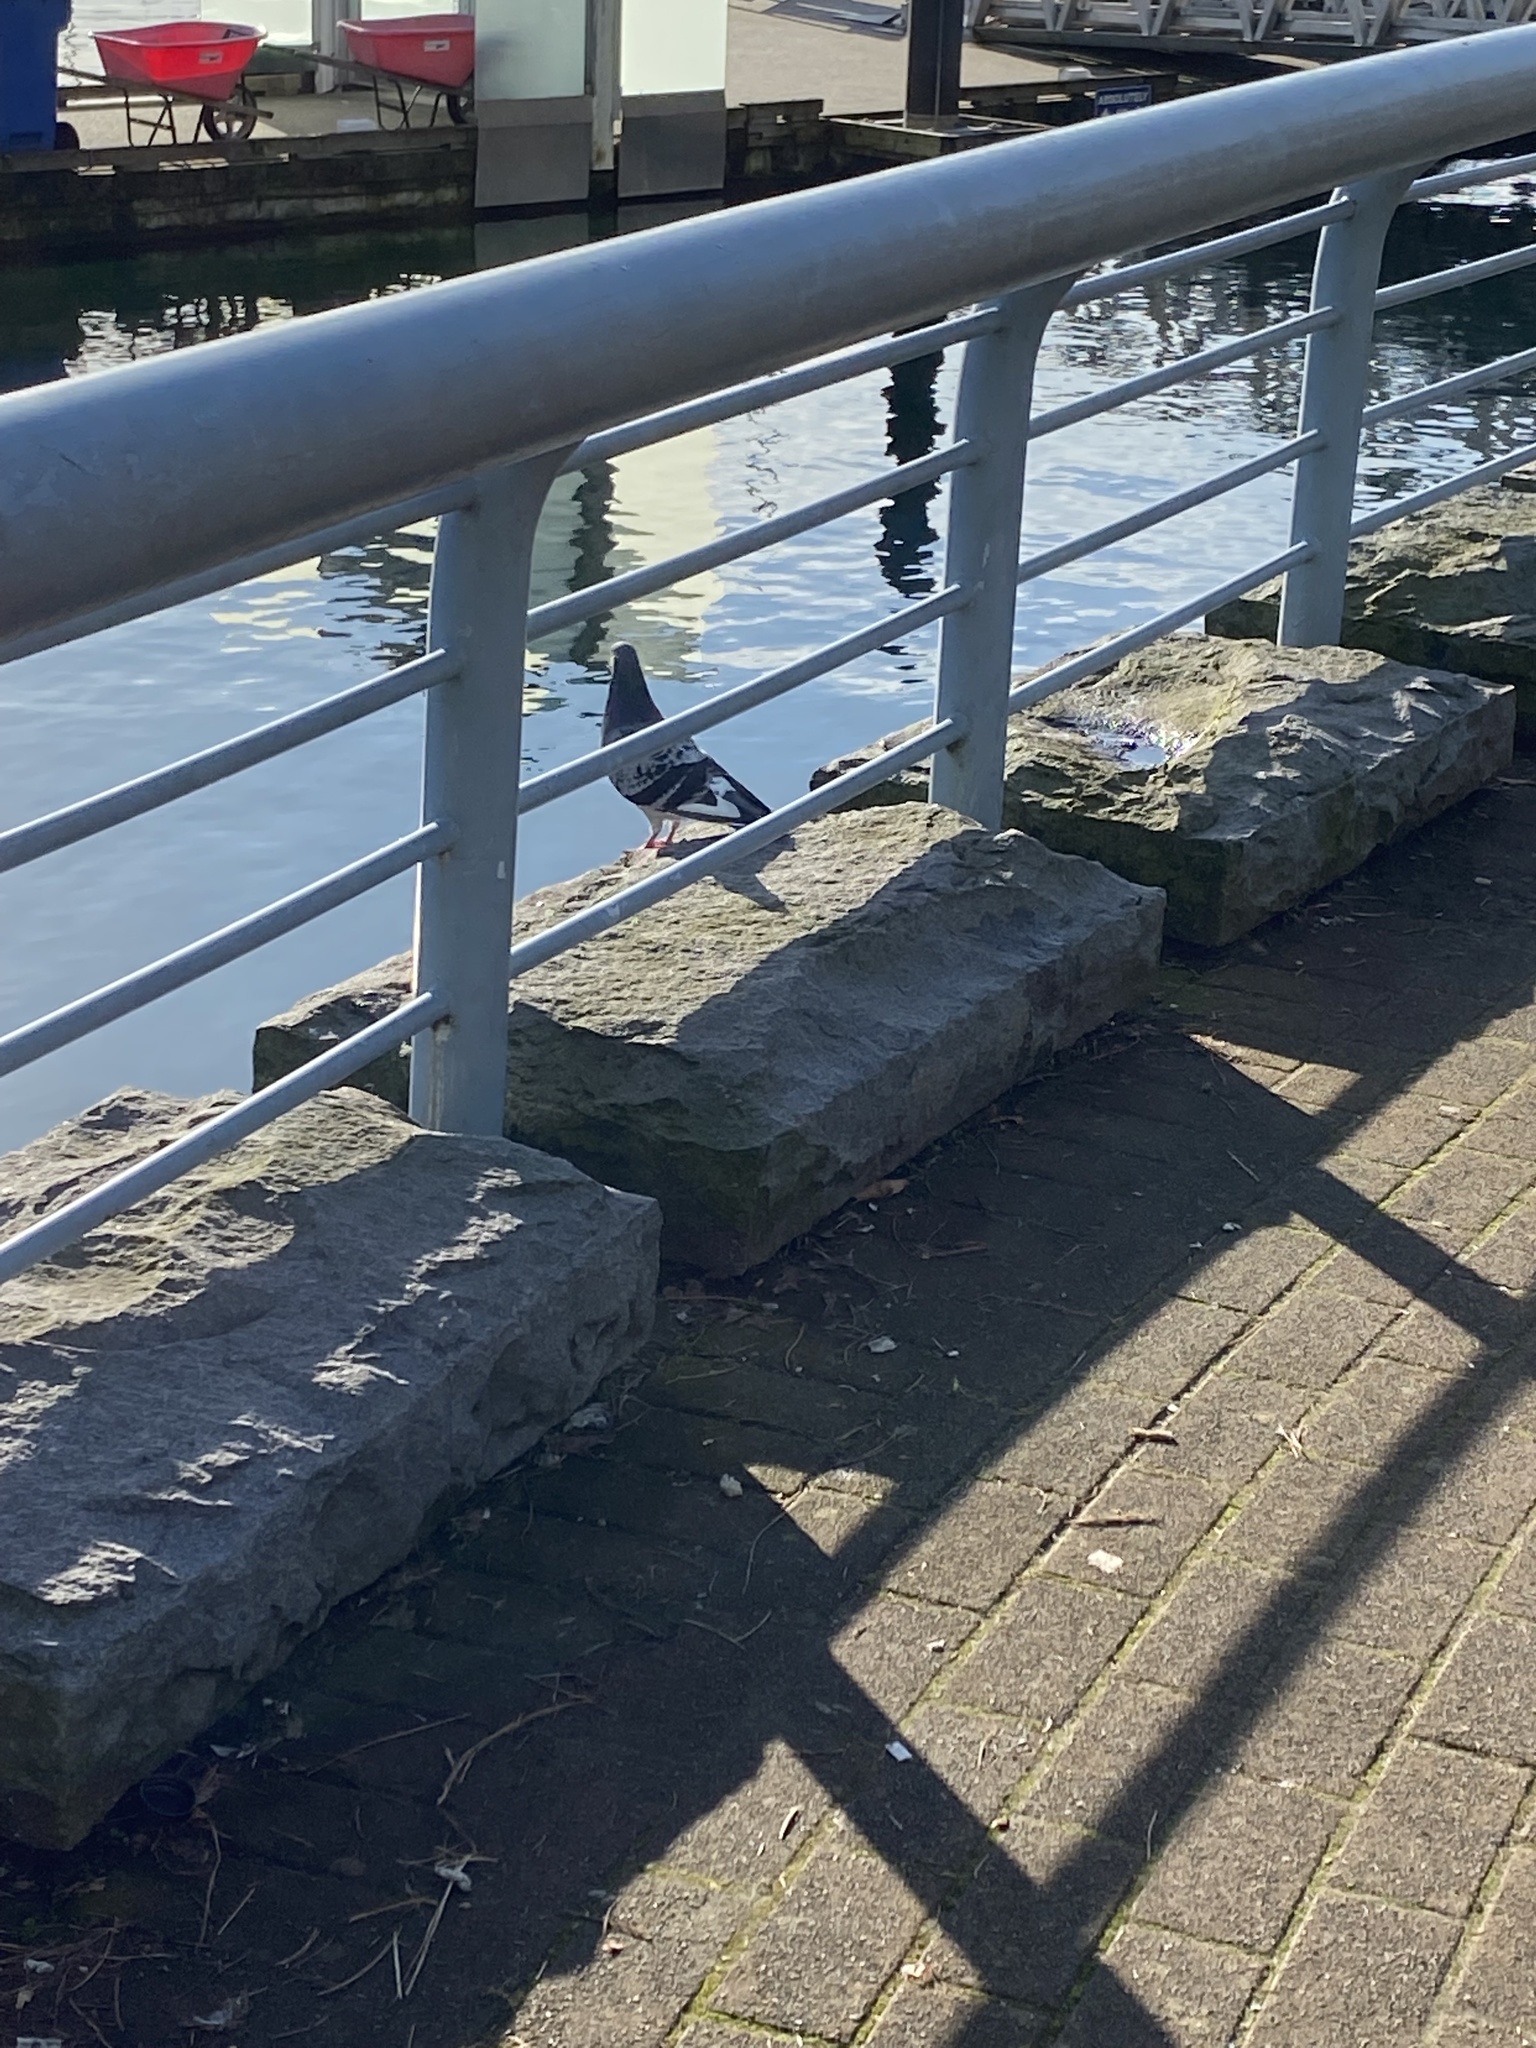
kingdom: Animalia
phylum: Chordata
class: Aves
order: Columbiformes
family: Columbidae
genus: Columba
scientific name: Columba livia
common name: Rock pigeon
